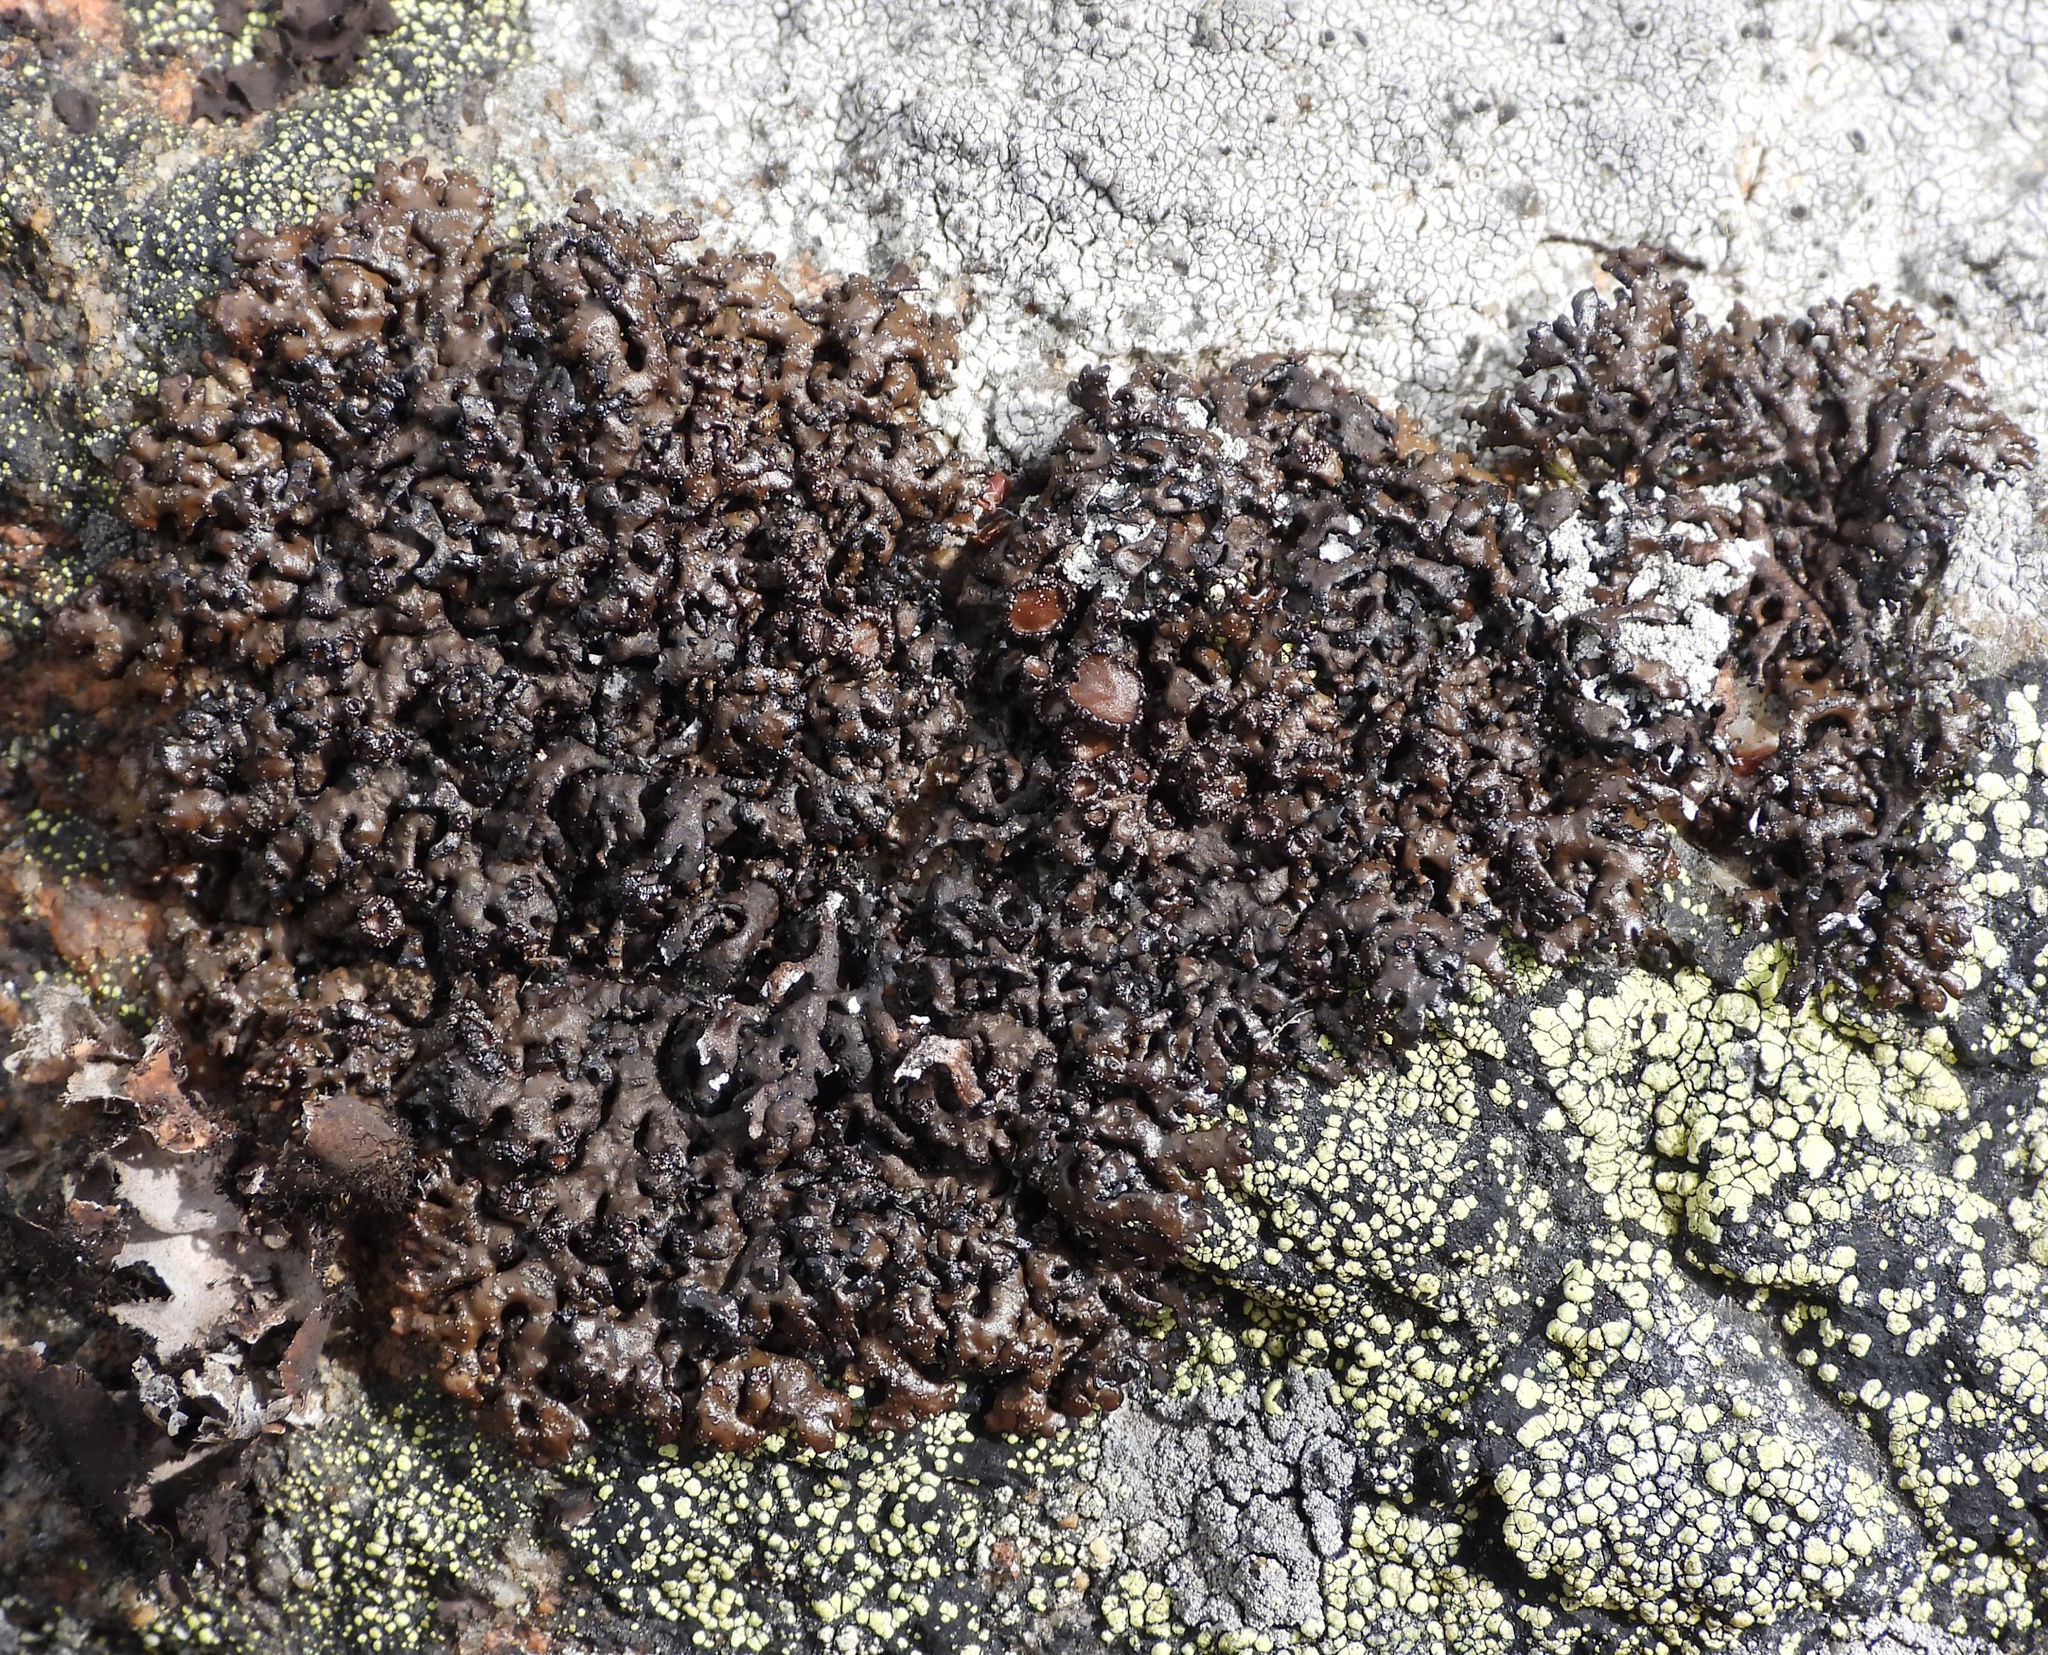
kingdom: Fungi
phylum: Ascomycota
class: Lecanoromycetes
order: Lecanorales
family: Parmeliaceae
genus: Melanelia
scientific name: Melanelia stygia
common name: Alpine camouflage lichen
